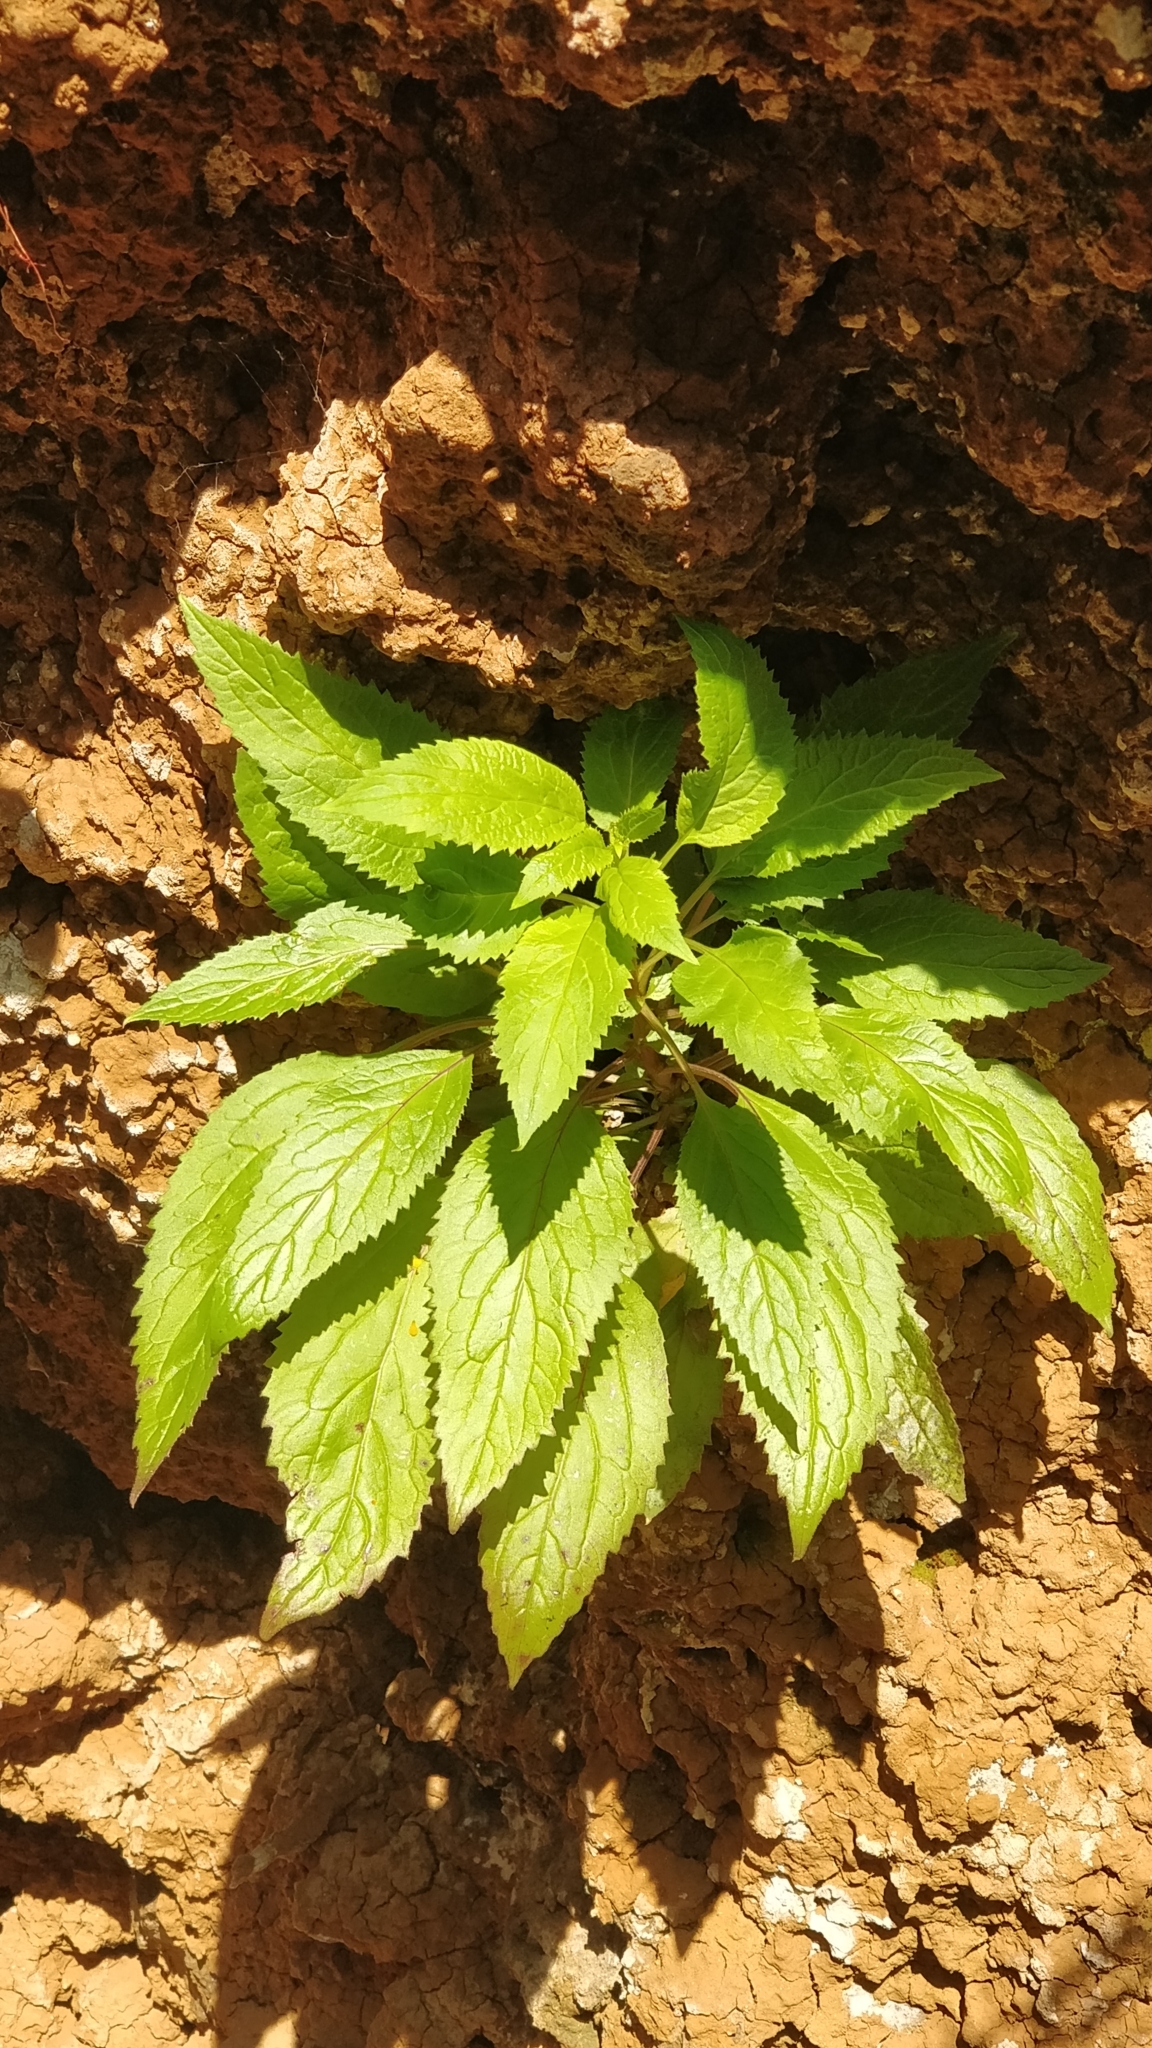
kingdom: Plantae
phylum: Tracheophyta
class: Magnoliopsida
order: Asterales
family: Campanulaceae
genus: Trachelium
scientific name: Trachelium caeruleum
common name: Throatwort
